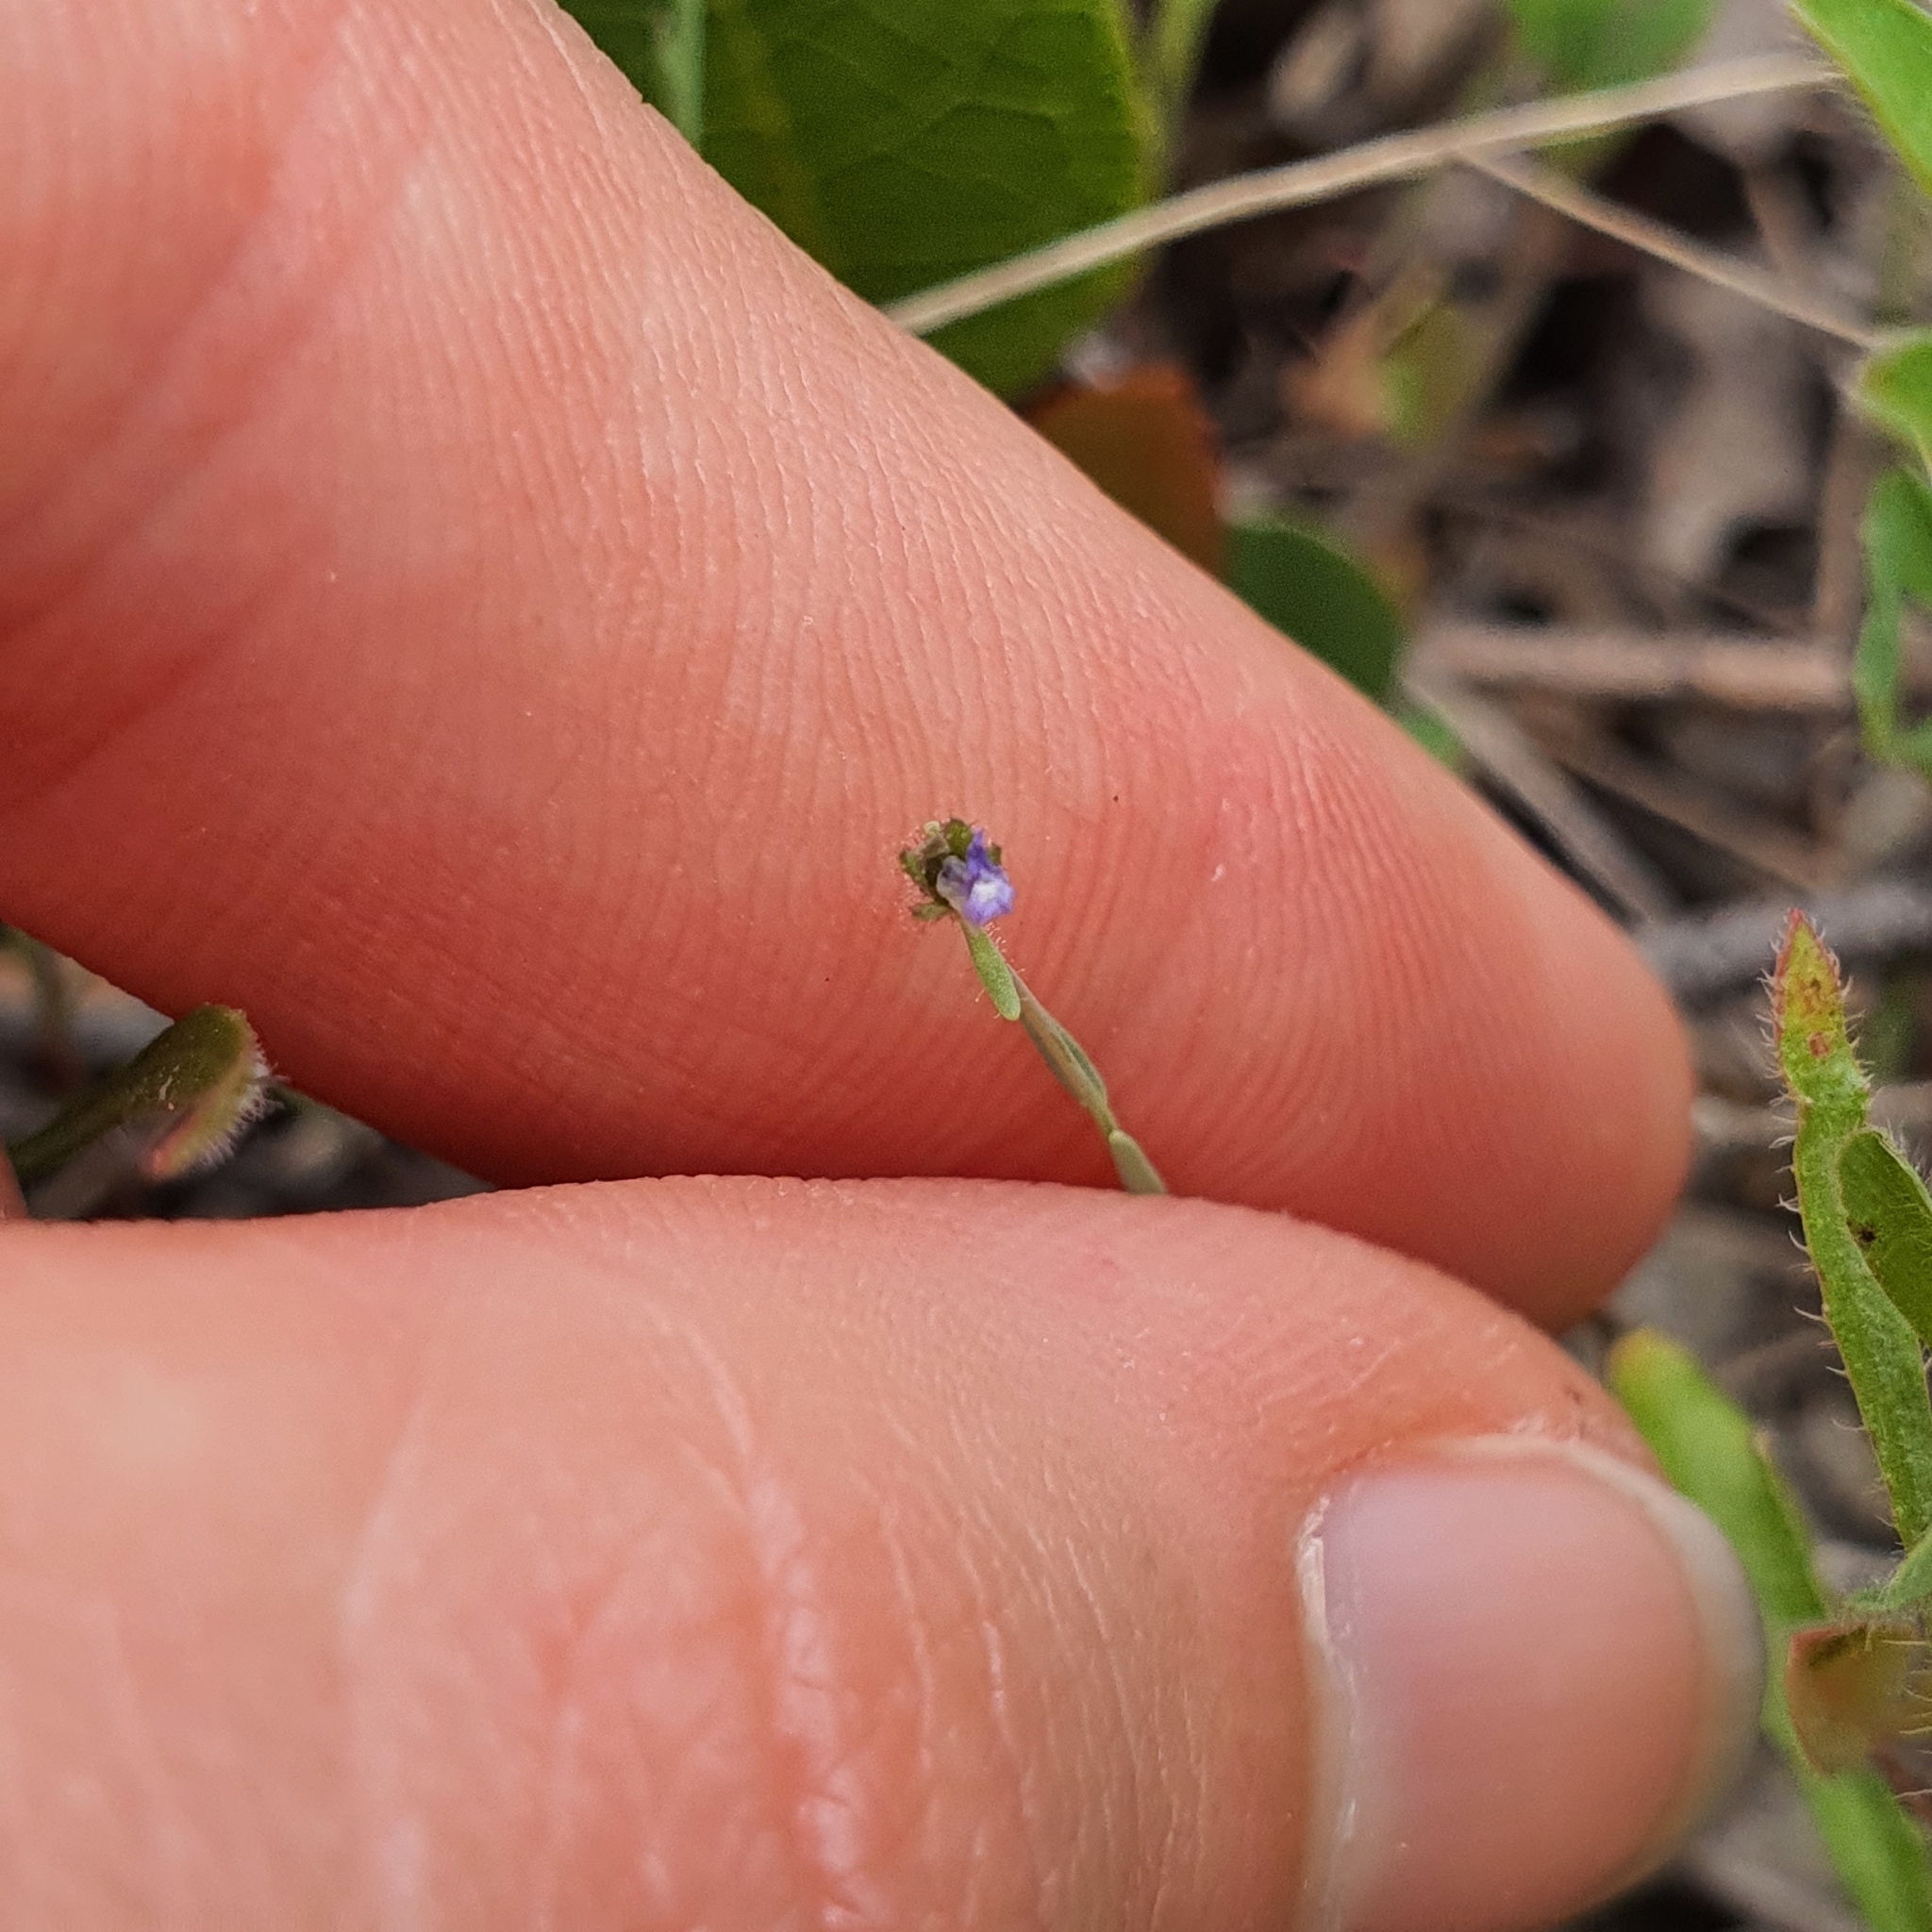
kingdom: Plantae
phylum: Tracheophyta
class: Magnoliopsida
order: Lamiales
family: Plantaginaceae
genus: Linaria
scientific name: Linaria arvensis
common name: Corn toadflax
